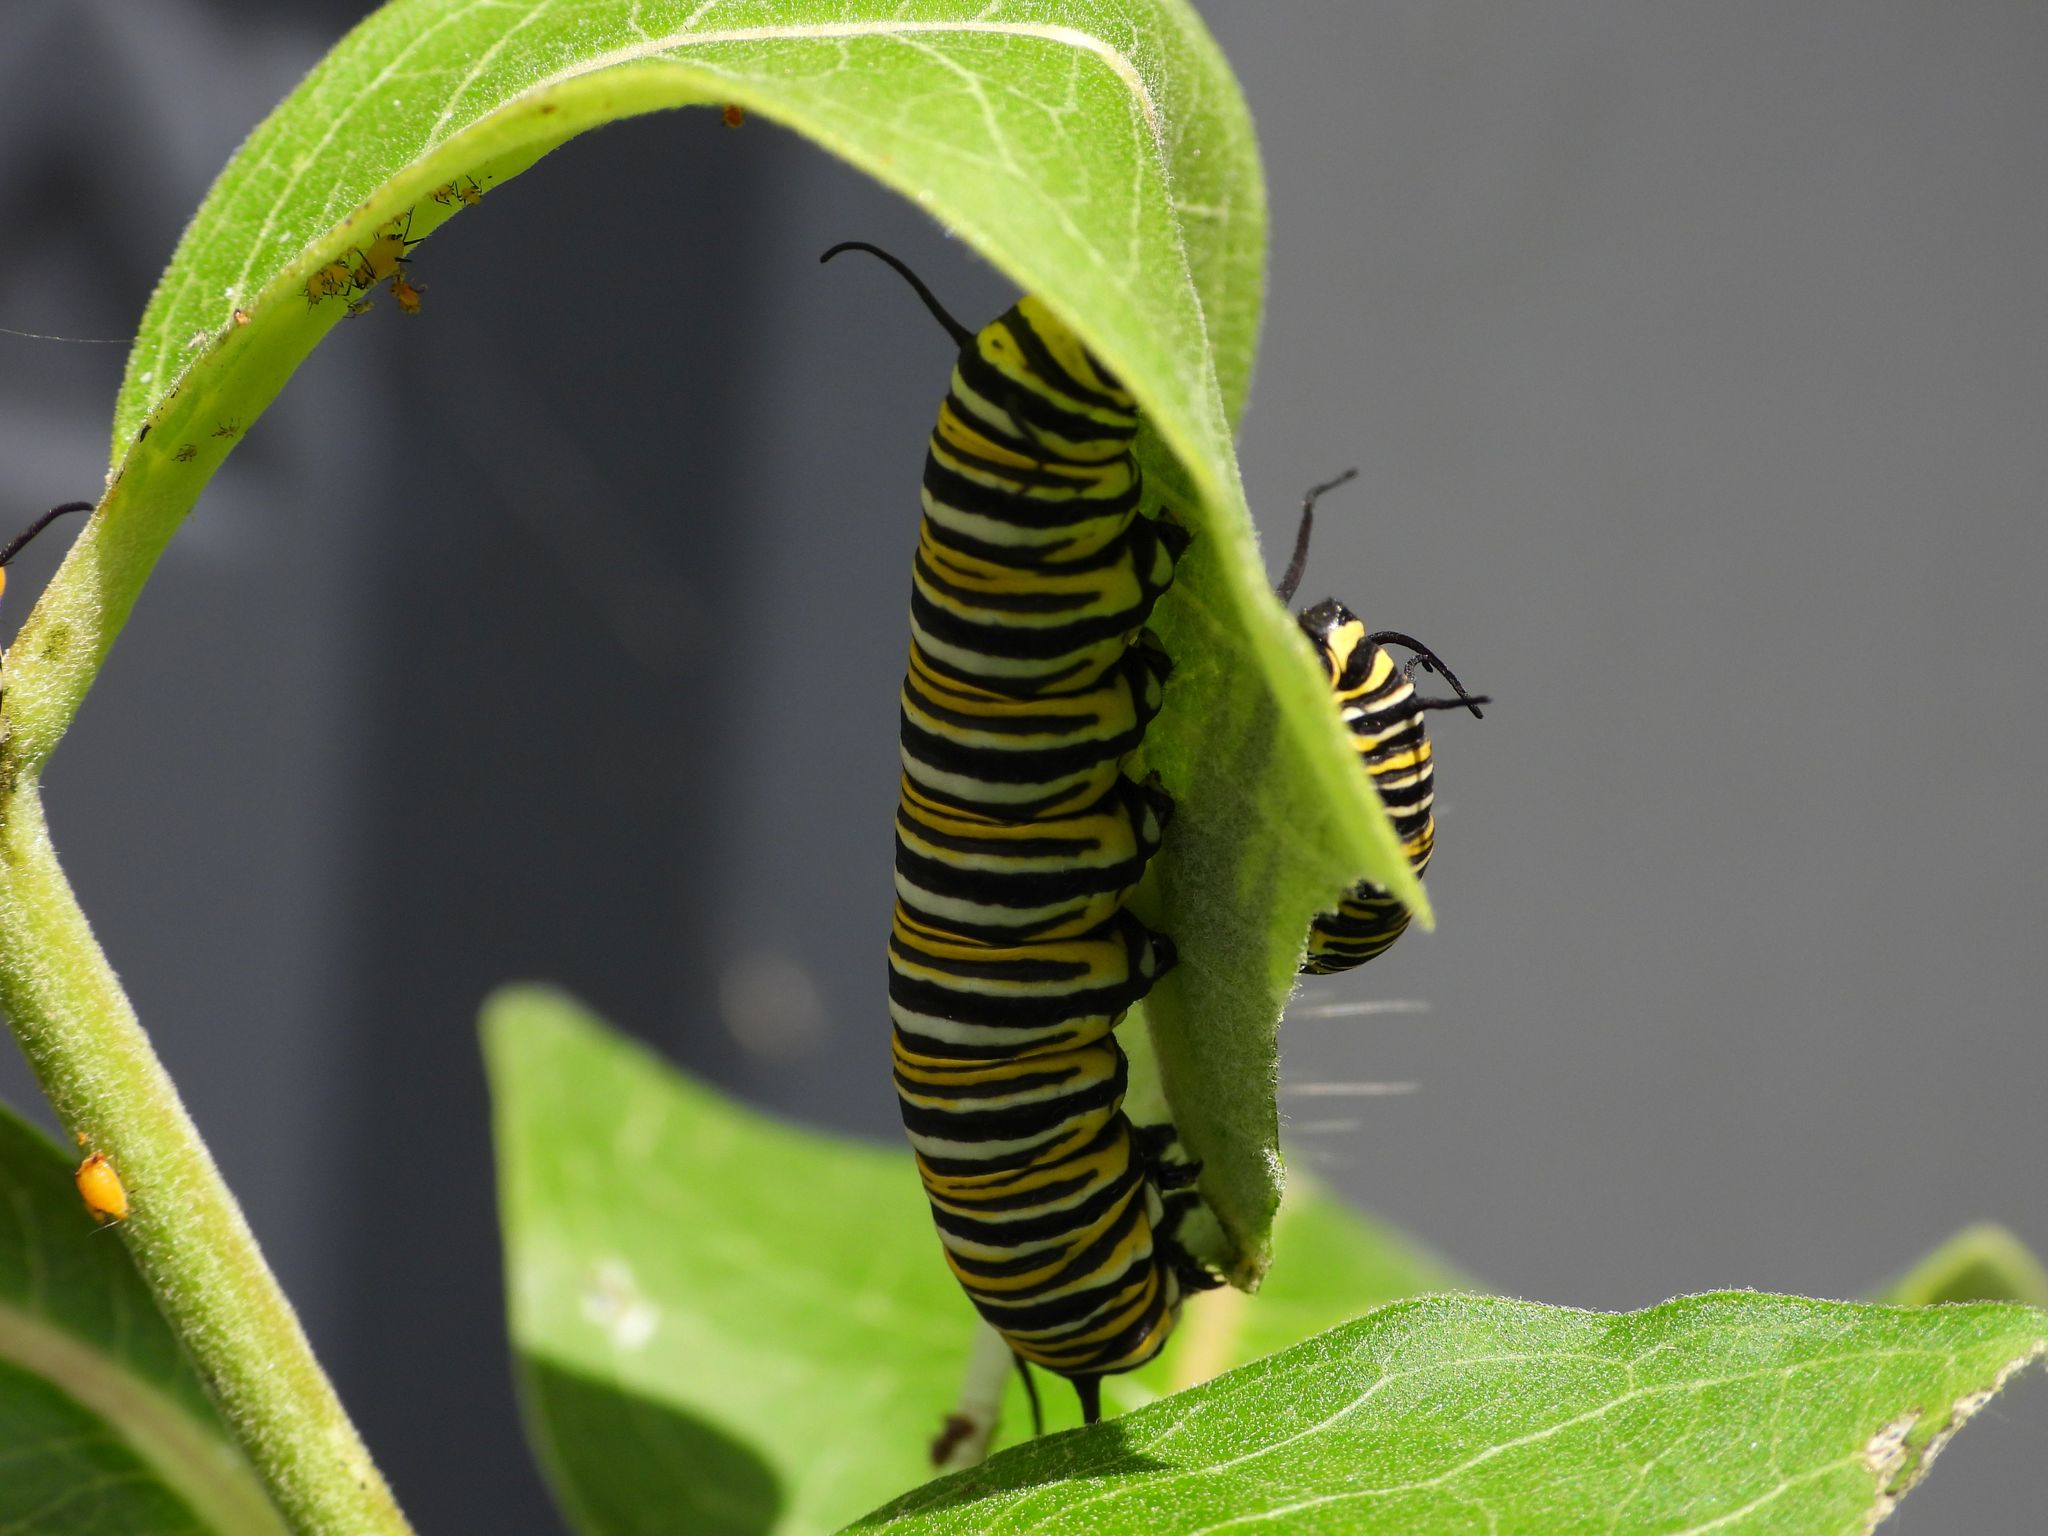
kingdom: Animalia
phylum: Arthropoda
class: Insecta
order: Lepidoptera
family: Nymphalidae
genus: Danaus
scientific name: Danaus plexippus
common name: Monarch
